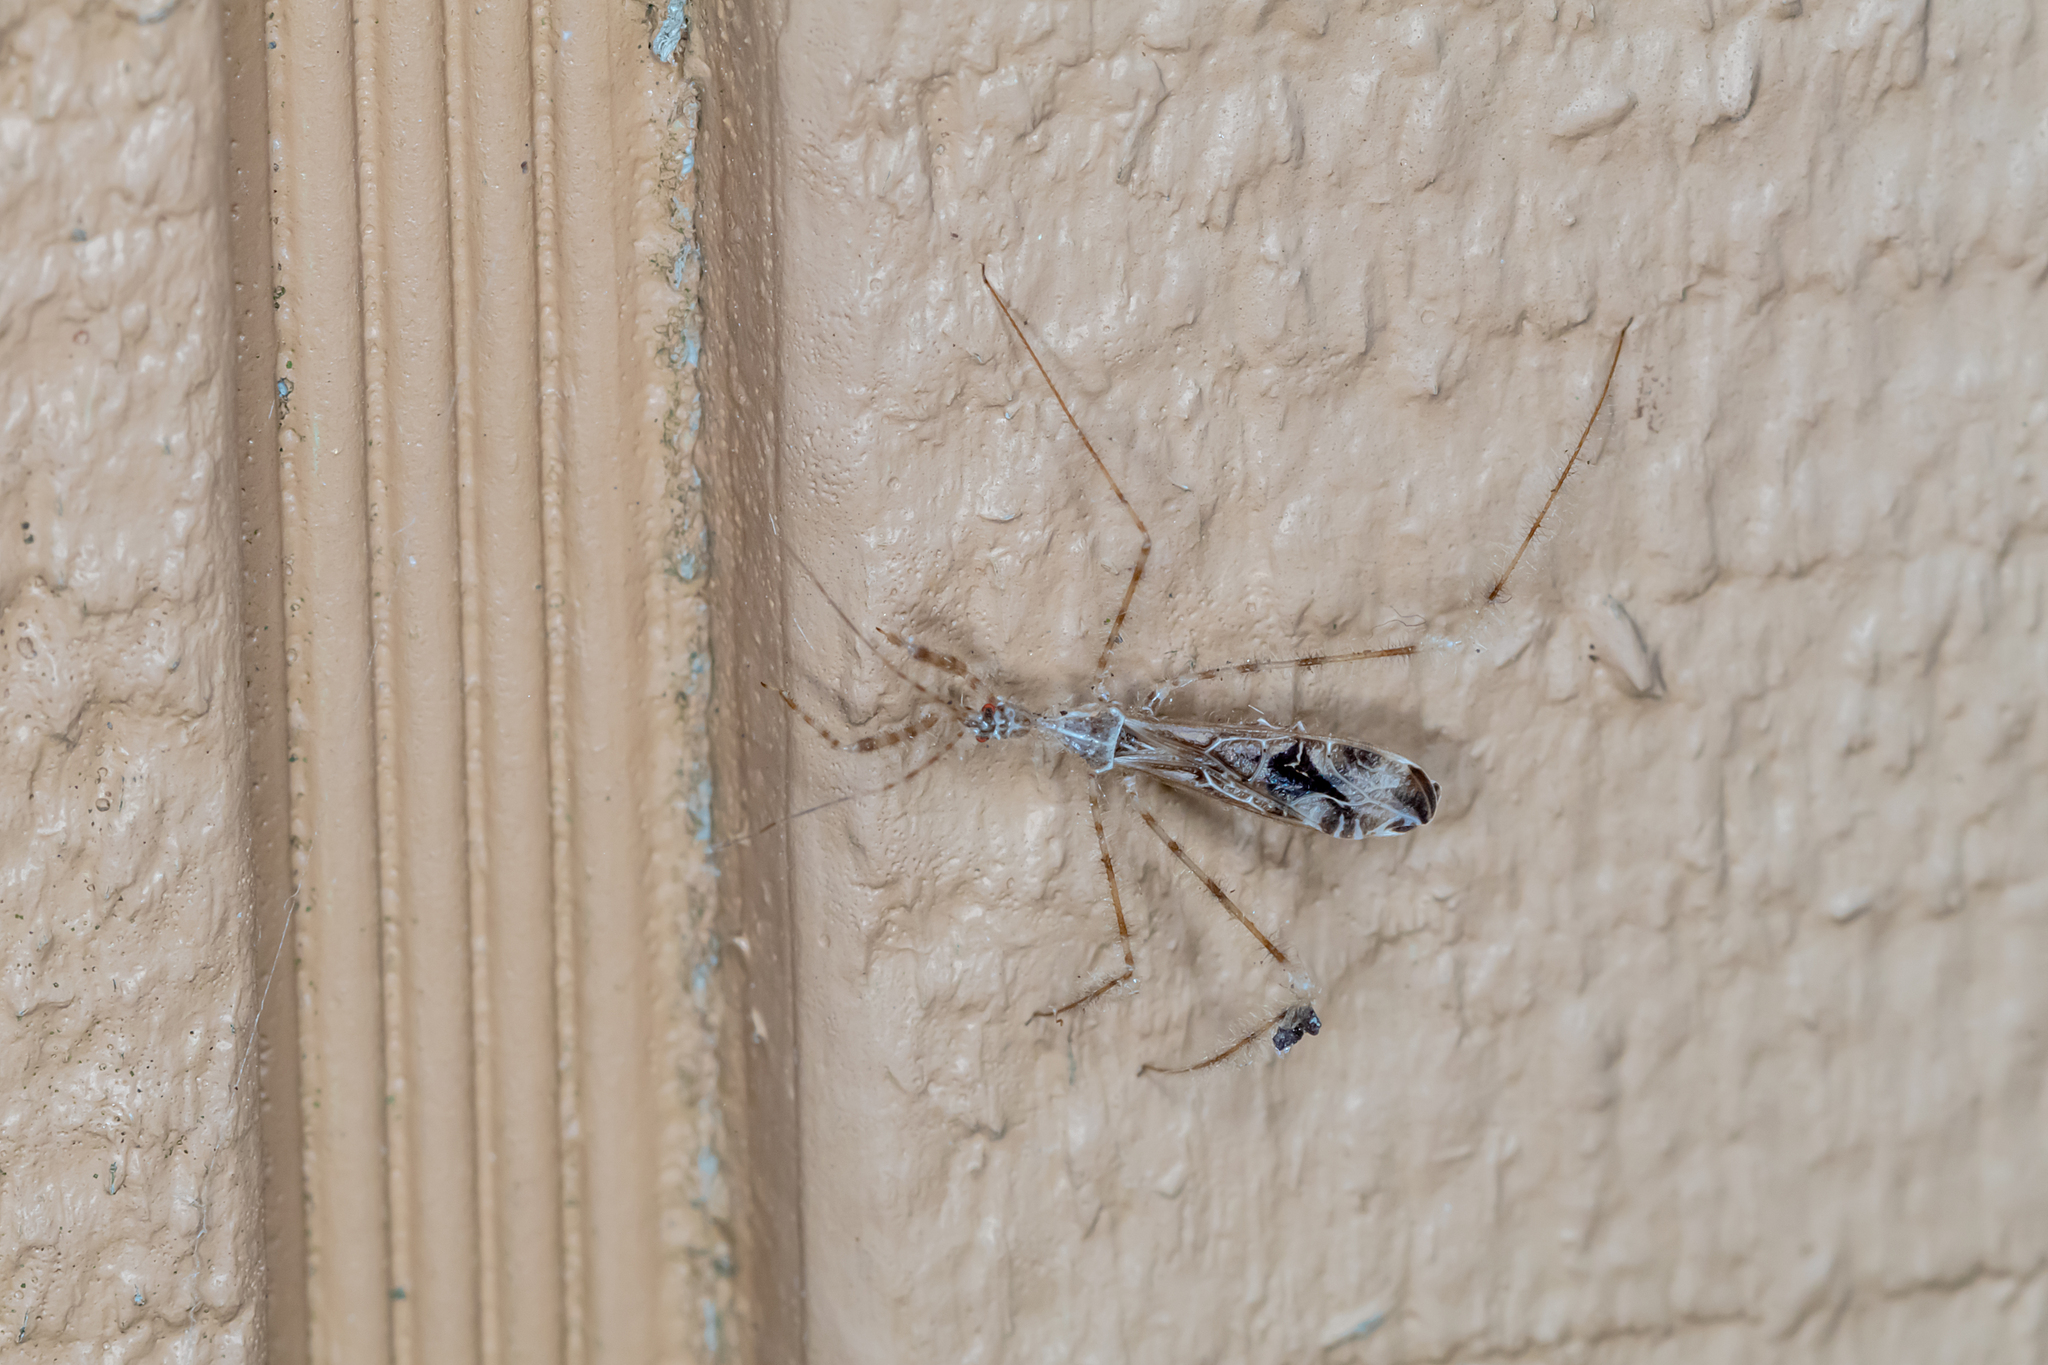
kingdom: Animalia
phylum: Arthropoda
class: Insecta
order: Hemiptera
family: Reduviidae
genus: Stenolemus
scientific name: Stenolemus fraterculus
